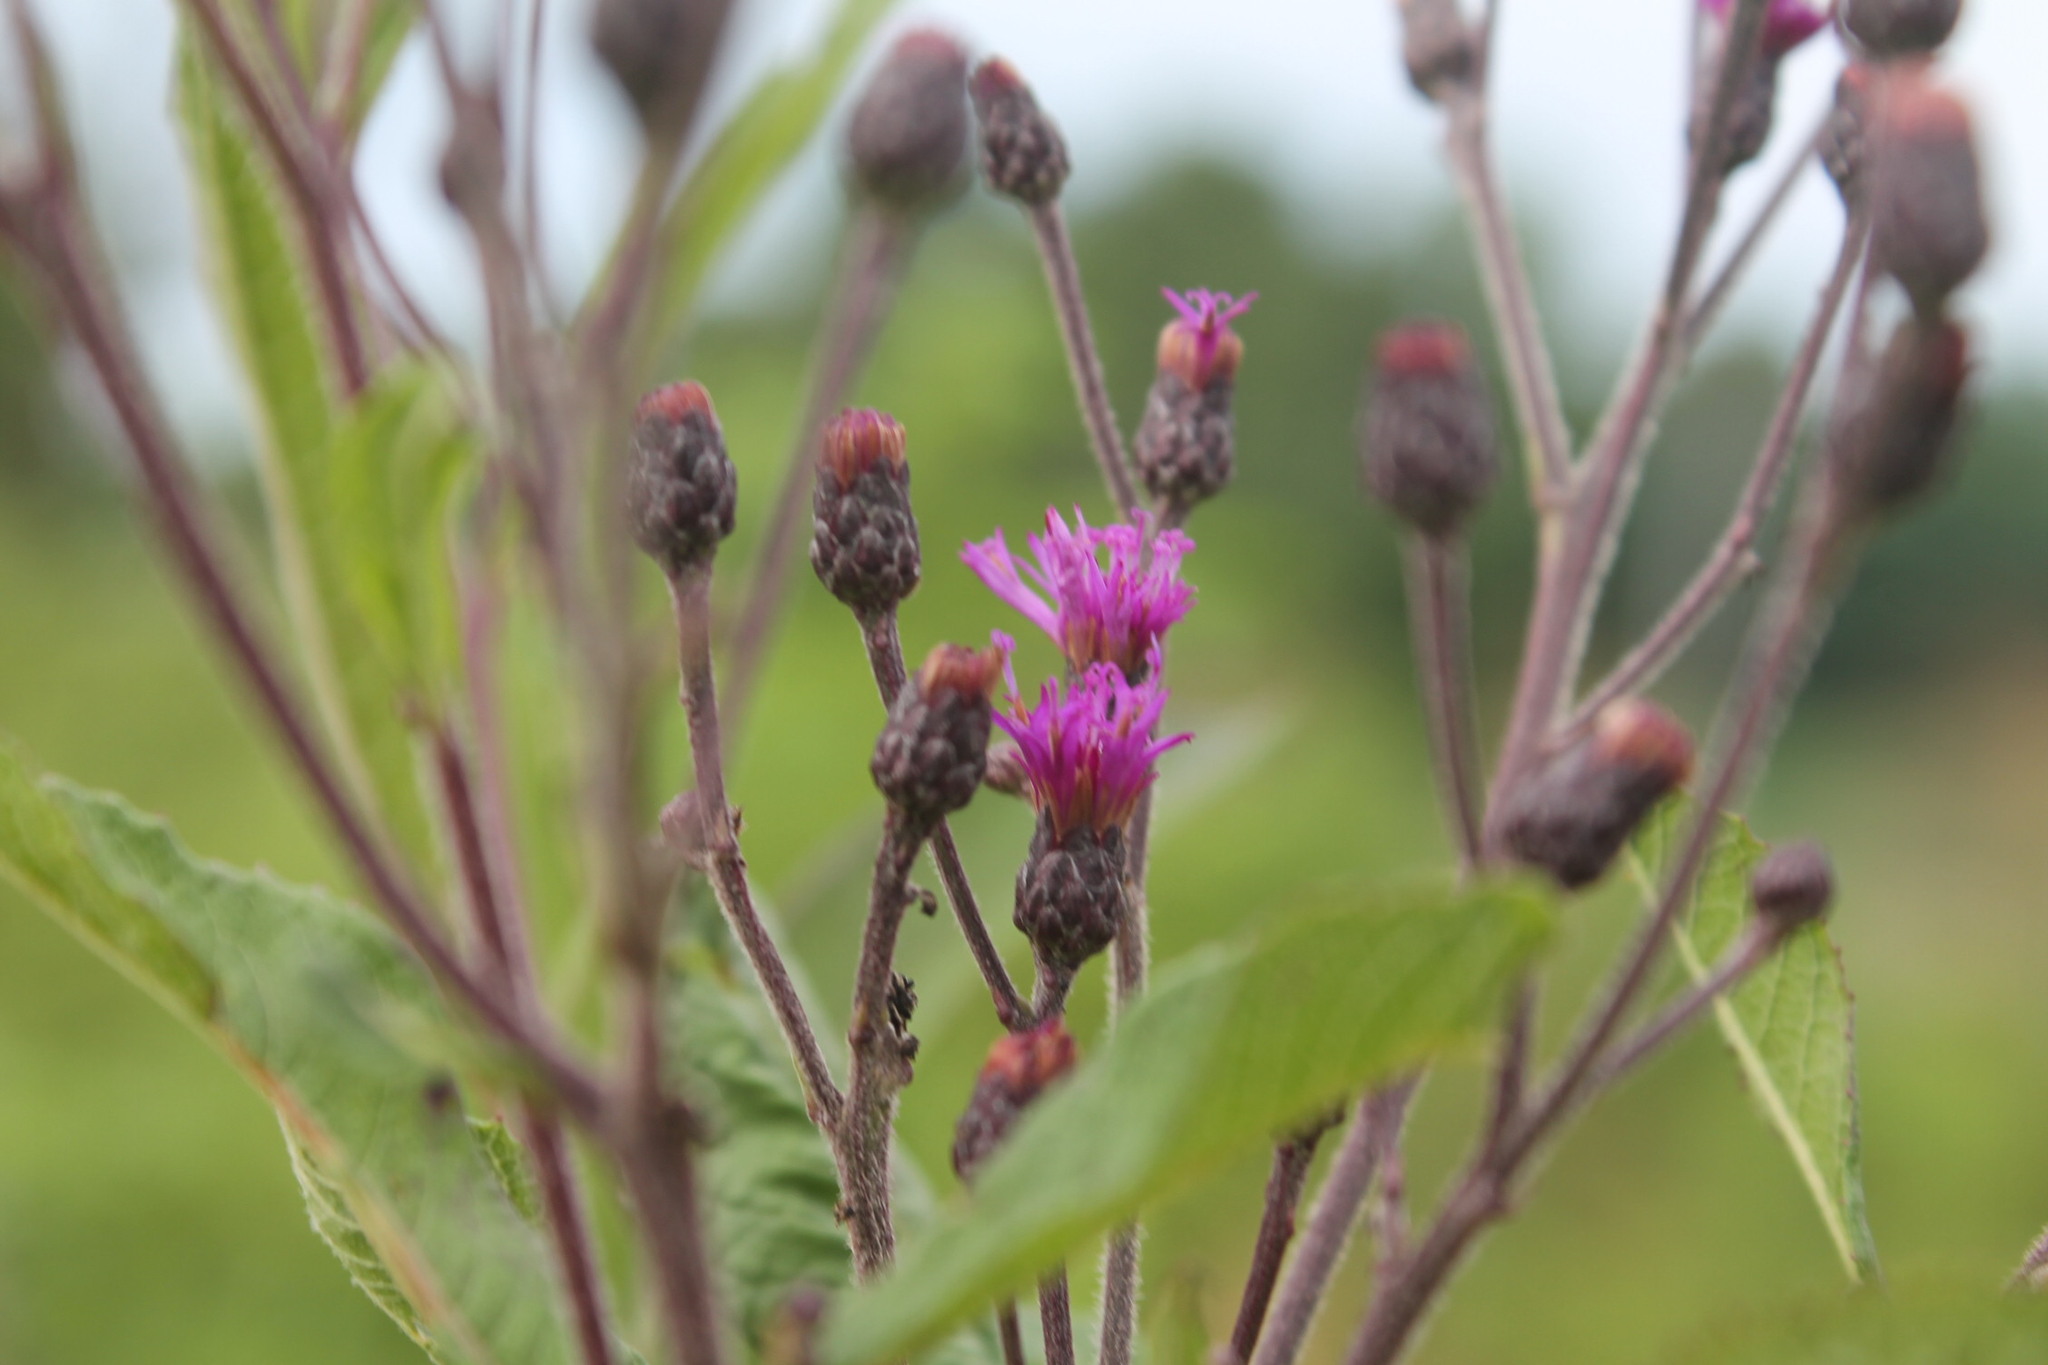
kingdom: Plantae
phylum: Tracheophyta
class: Magnoliopsida
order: Asterales
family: Asteraceae
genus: Vernonia
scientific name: Vernonia gigantea
